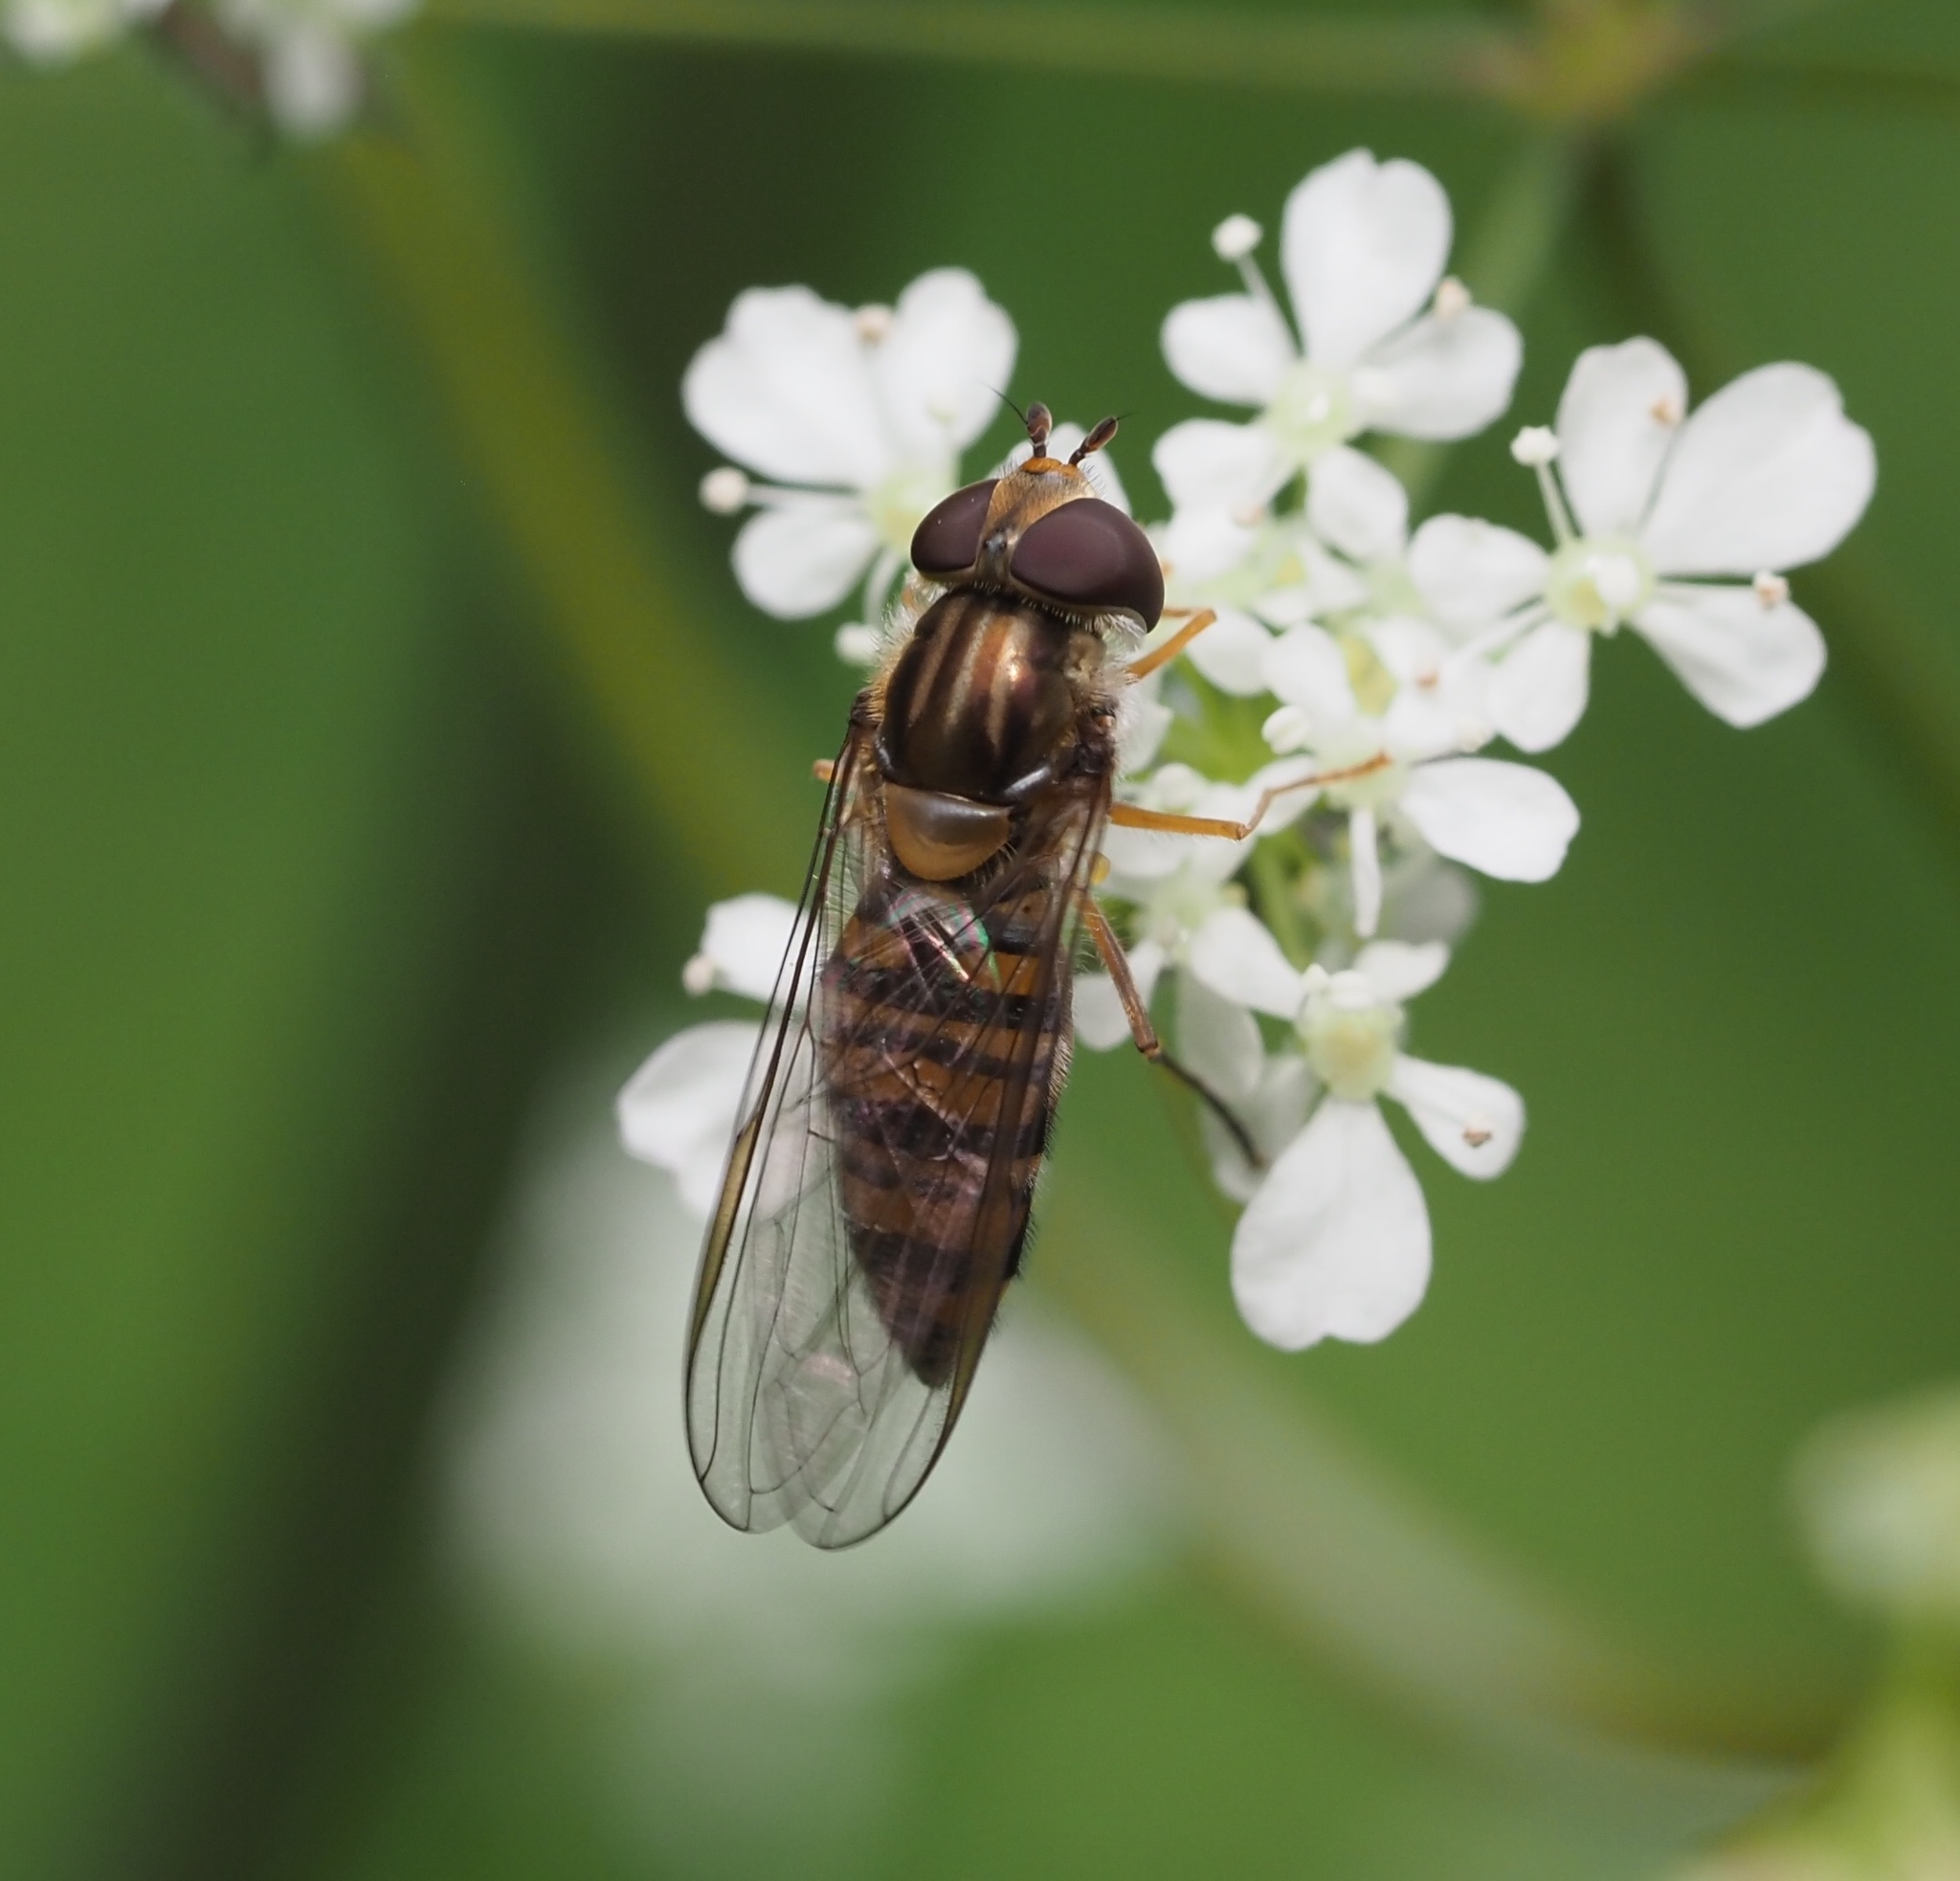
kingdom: Animalia
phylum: Arthropoda
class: Insecta
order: Diptera
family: Syrphidae
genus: Episyrphus
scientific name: Episyrphus balteatus
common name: Marmalade hoverfly
